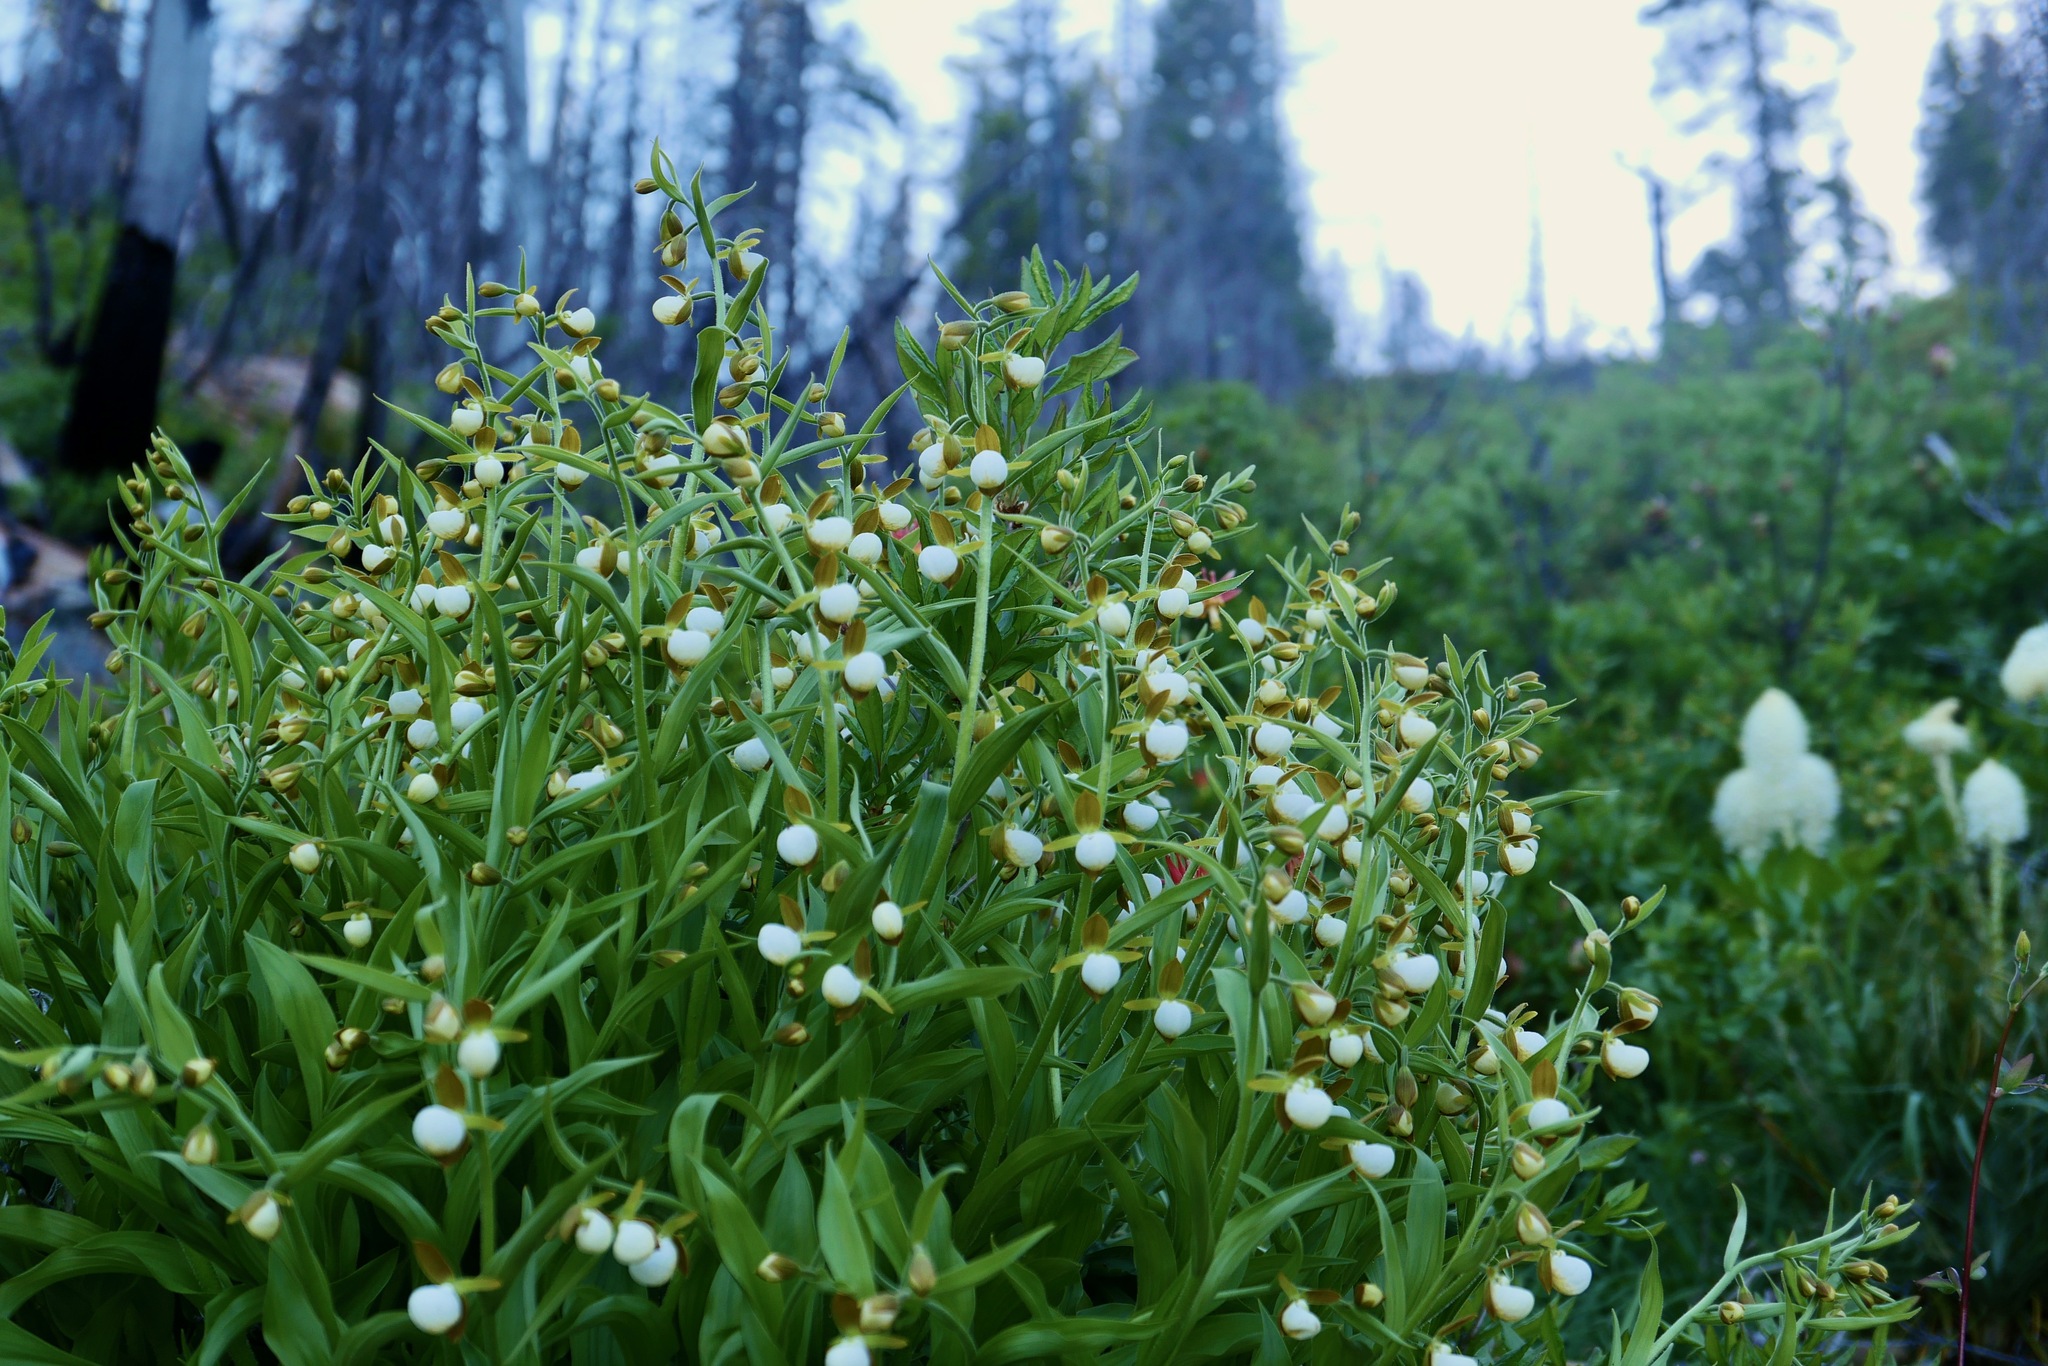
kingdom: Plantae
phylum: Tracheophyta
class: Liliopsida
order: Asparagales
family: Orchidaceae
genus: Cypripedium
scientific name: Cypripedium californicum
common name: California lady's slipper
